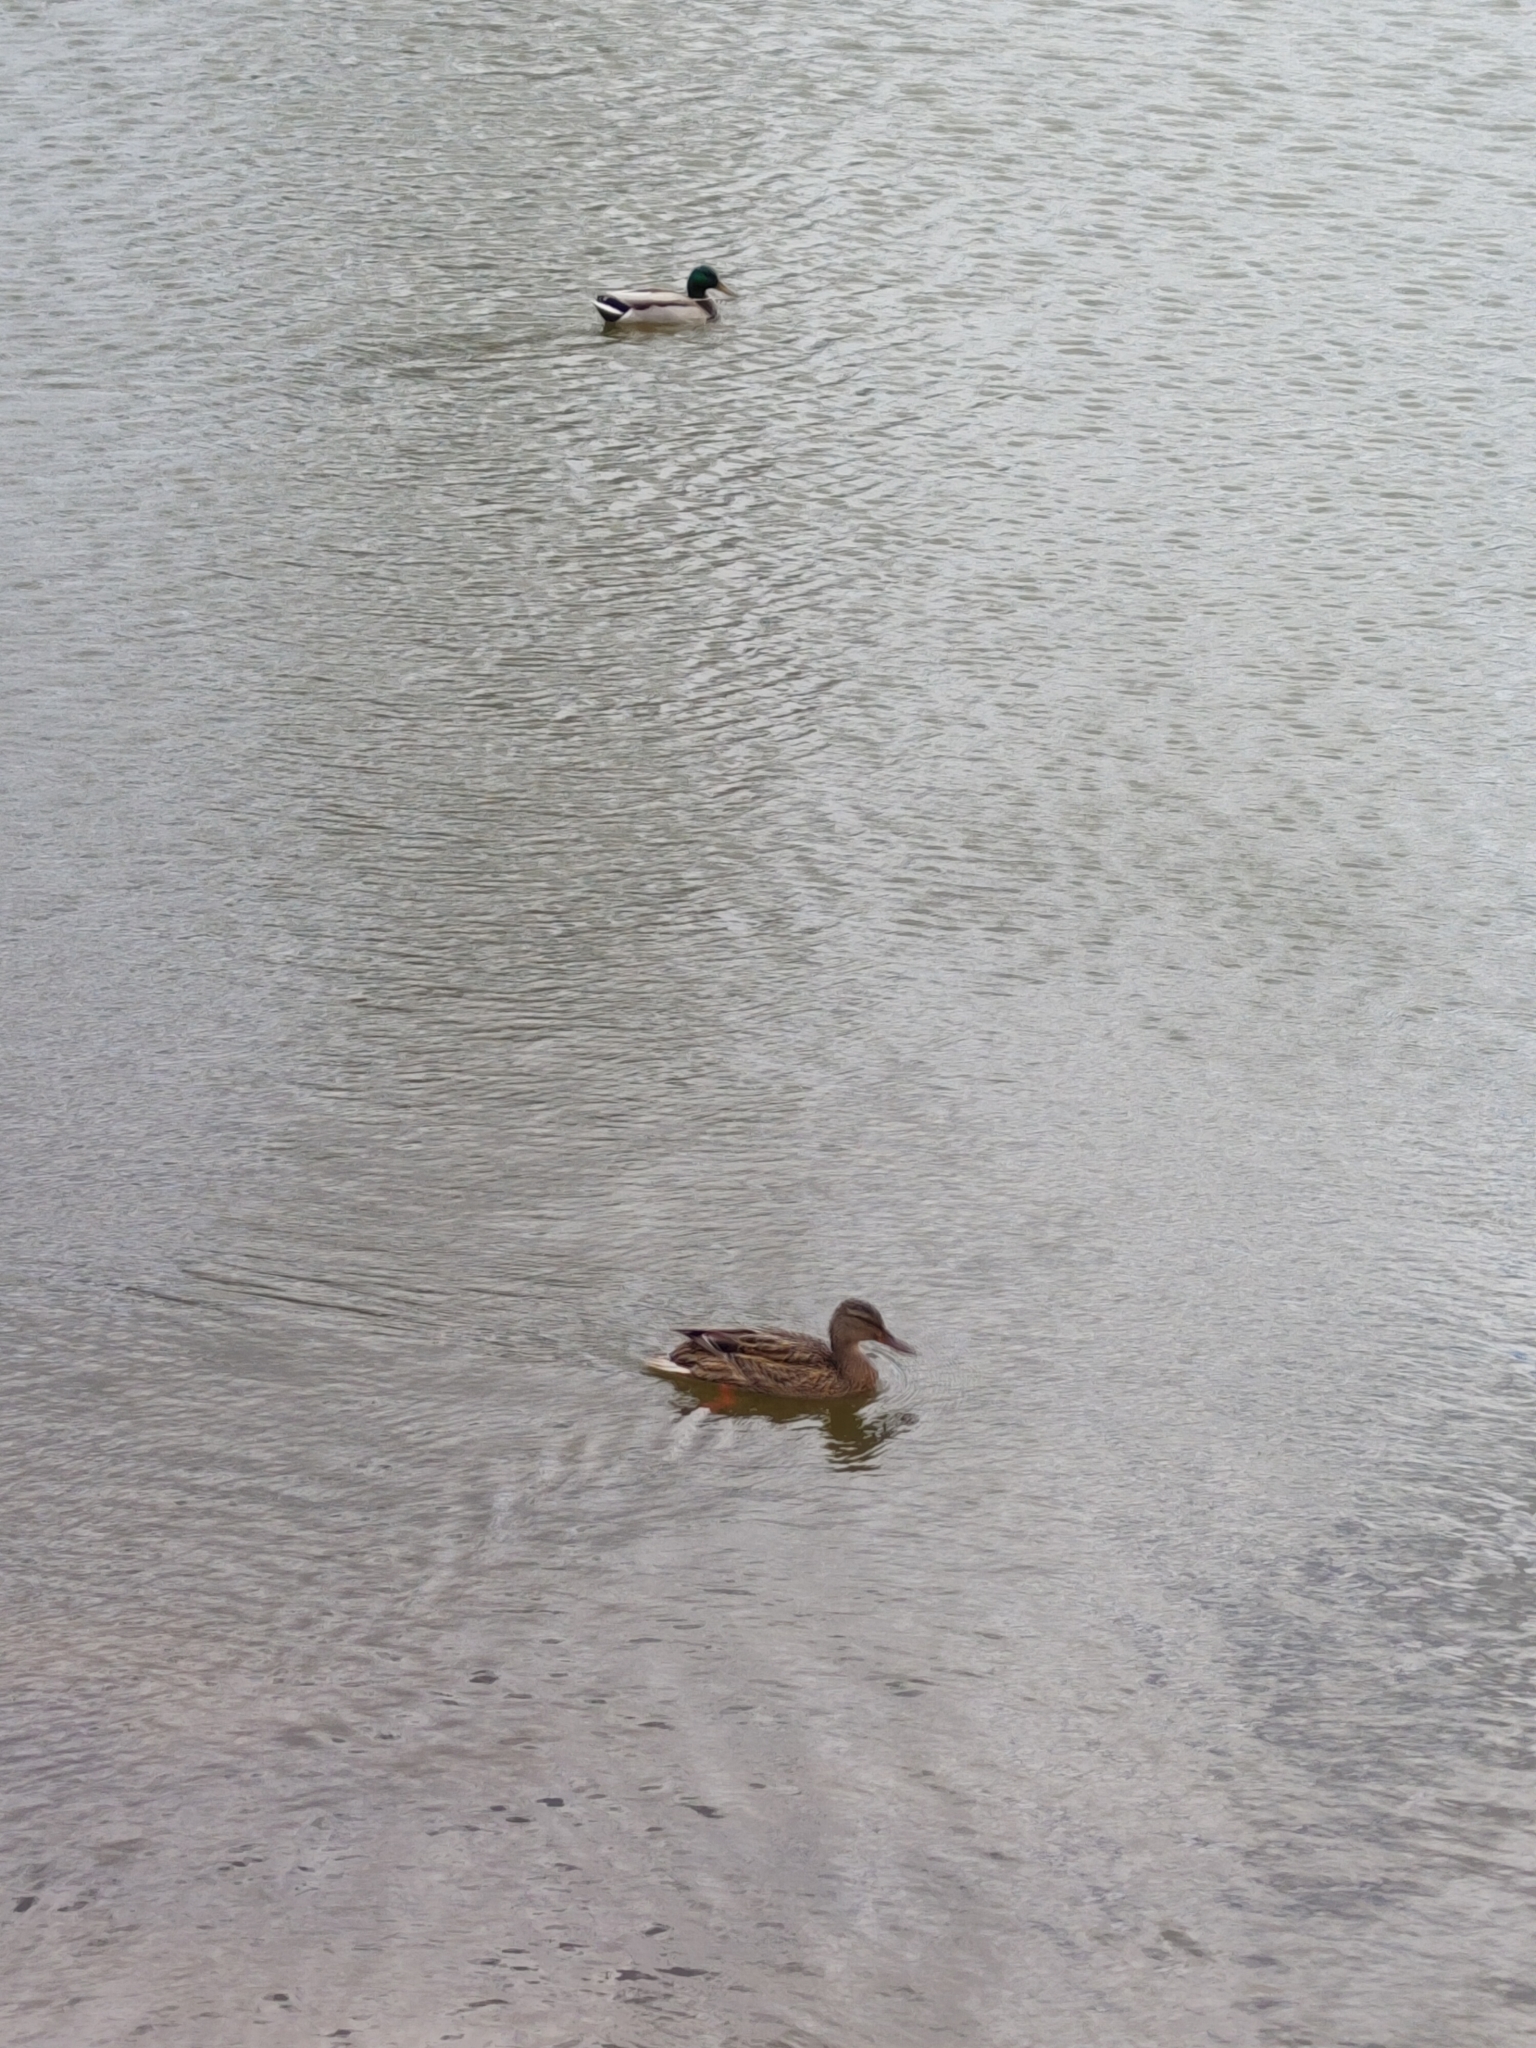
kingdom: Animalia
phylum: Chordata
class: Aves
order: Anseriformes
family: Anatidae
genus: Anas
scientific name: Anas platyrhynchos
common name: Mallard
